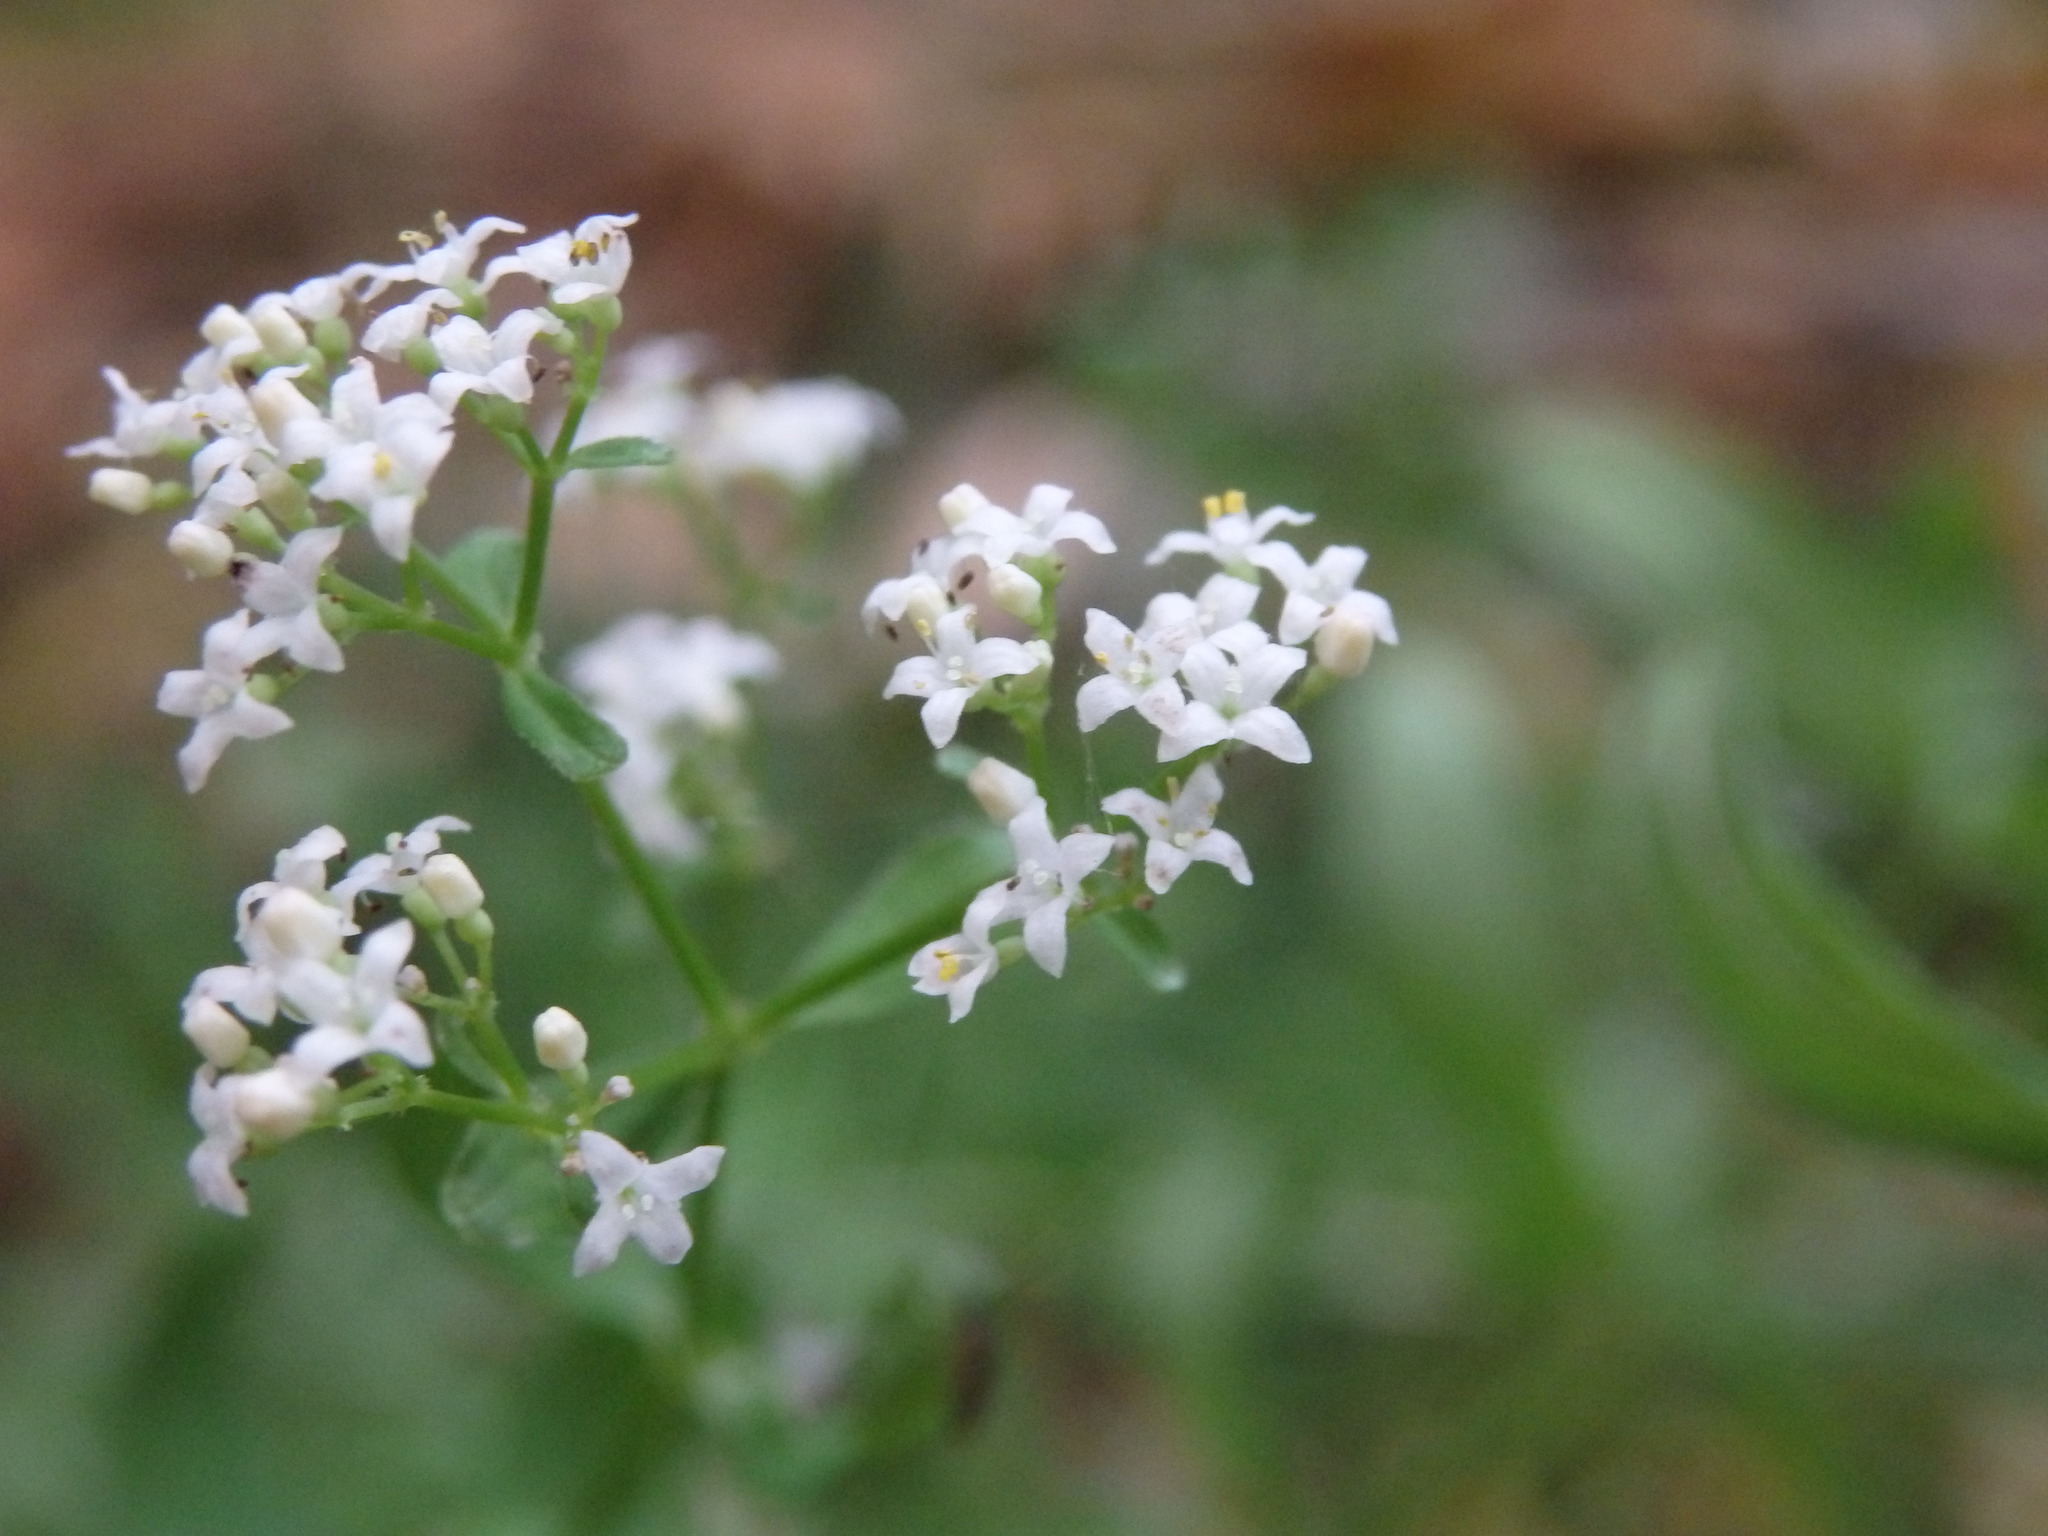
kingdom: Plantae
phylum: Tracheophyta
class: Magnoliopsida
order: Gentianales
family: Rubiaceae
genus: Galium
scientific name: Galium broterianum
